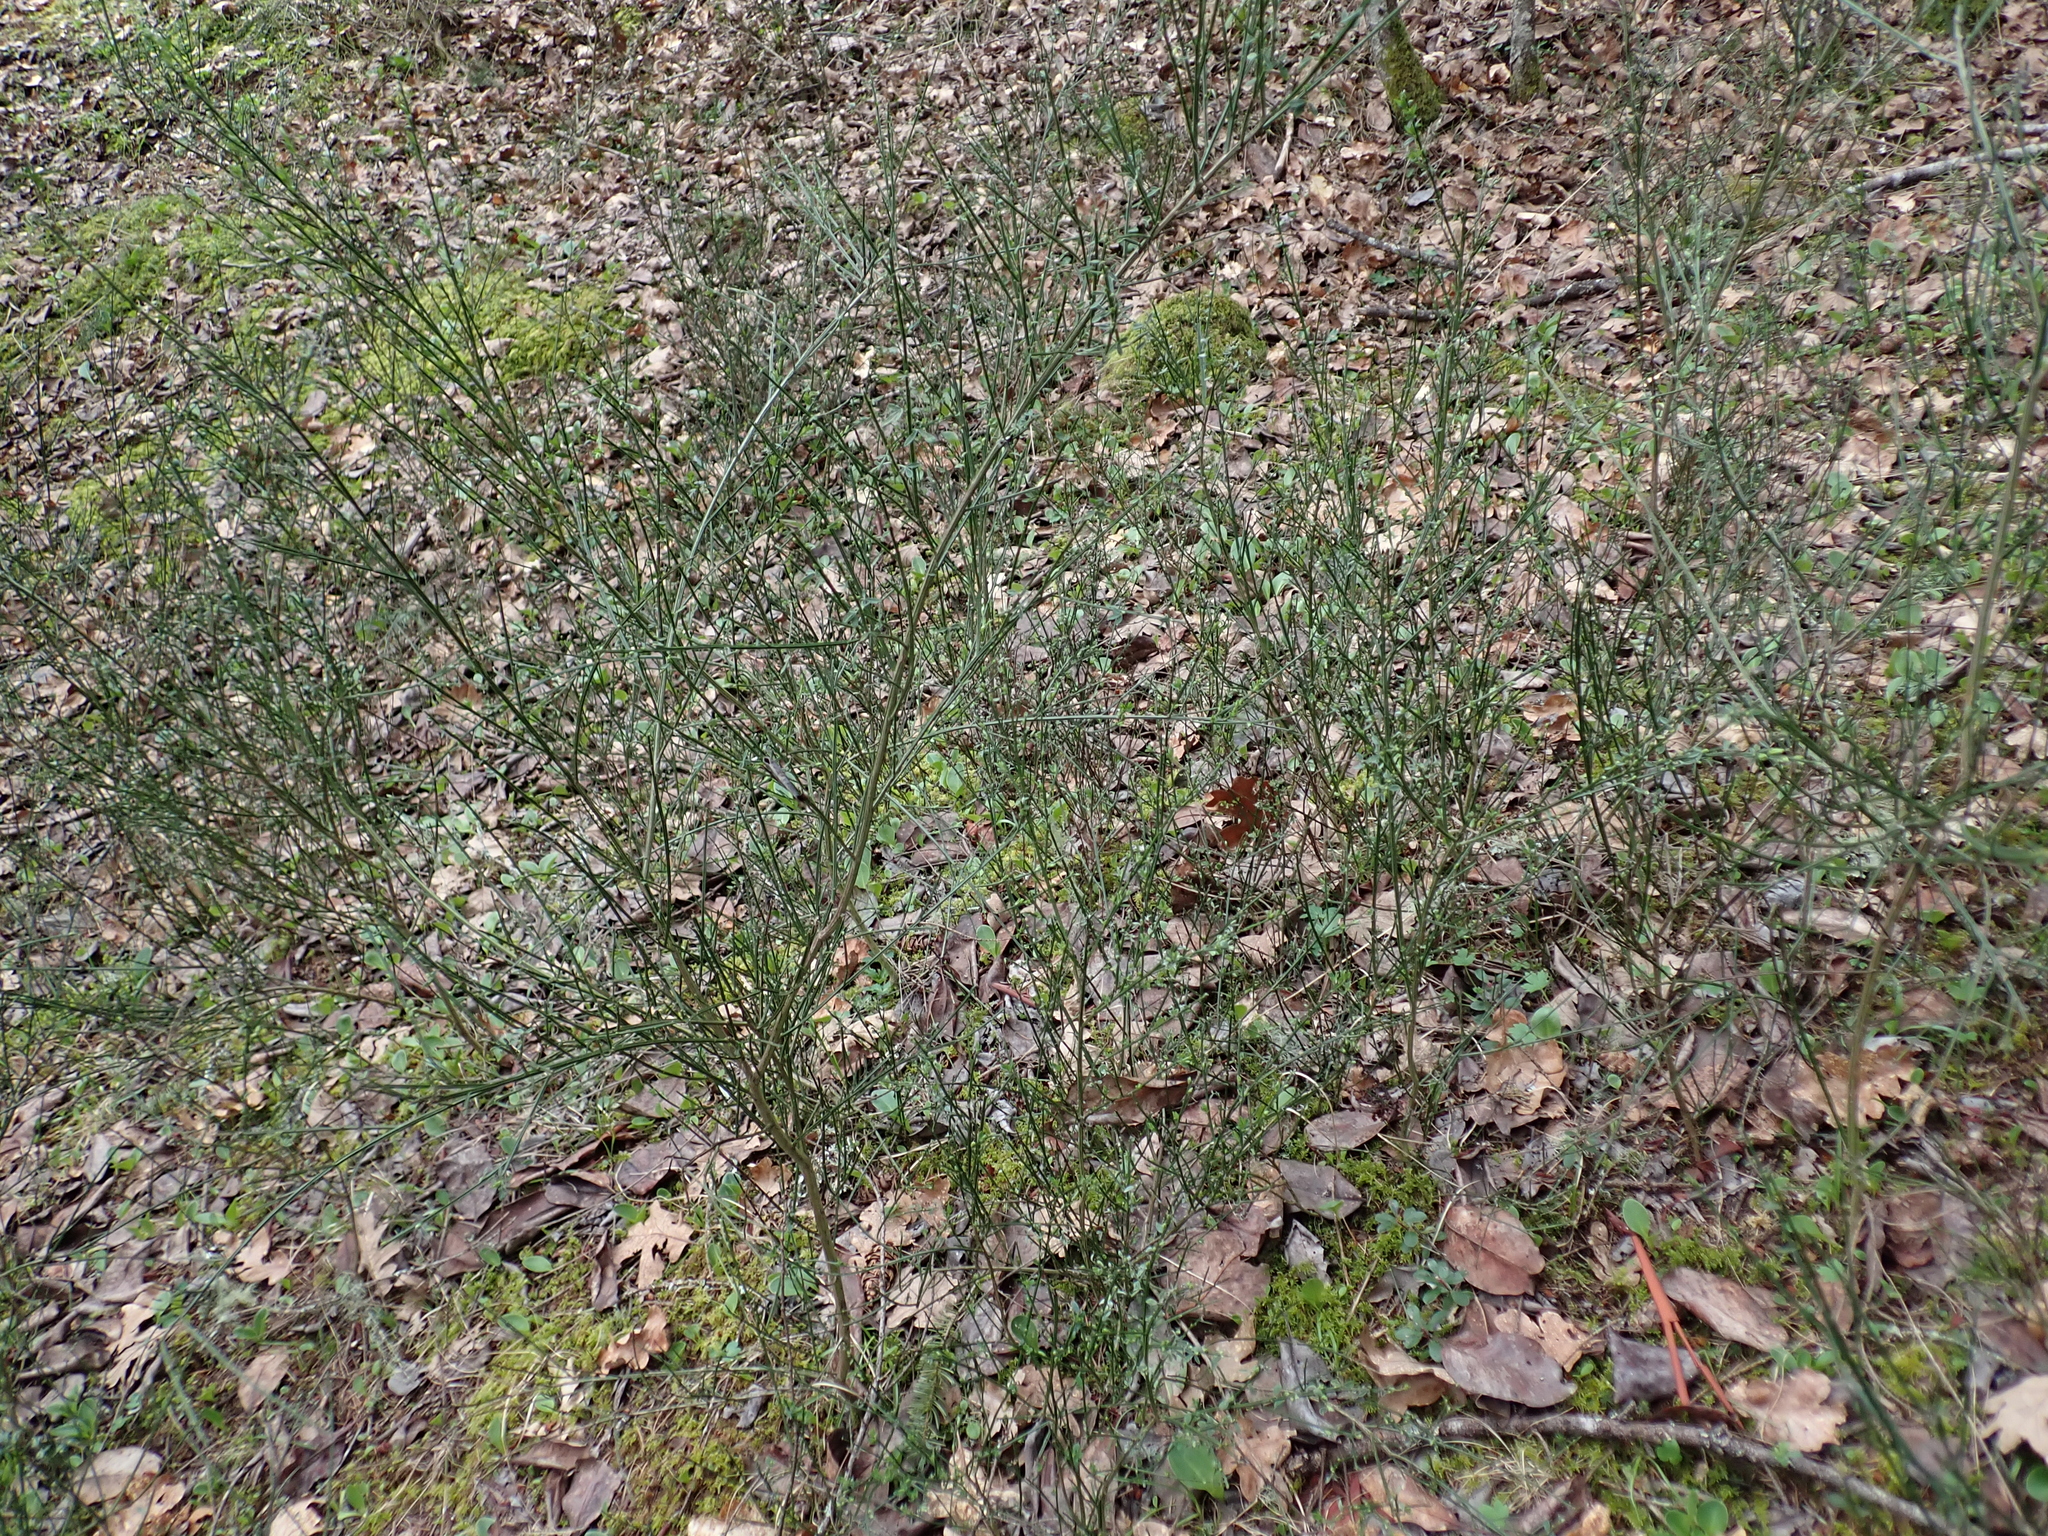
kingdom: Plantae
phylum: Tracheophyta
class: Magnoliopsida
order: Fabales
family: Fabaceae
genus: Cytisus
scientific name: Cytisus scoparius
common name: Scotch broom
